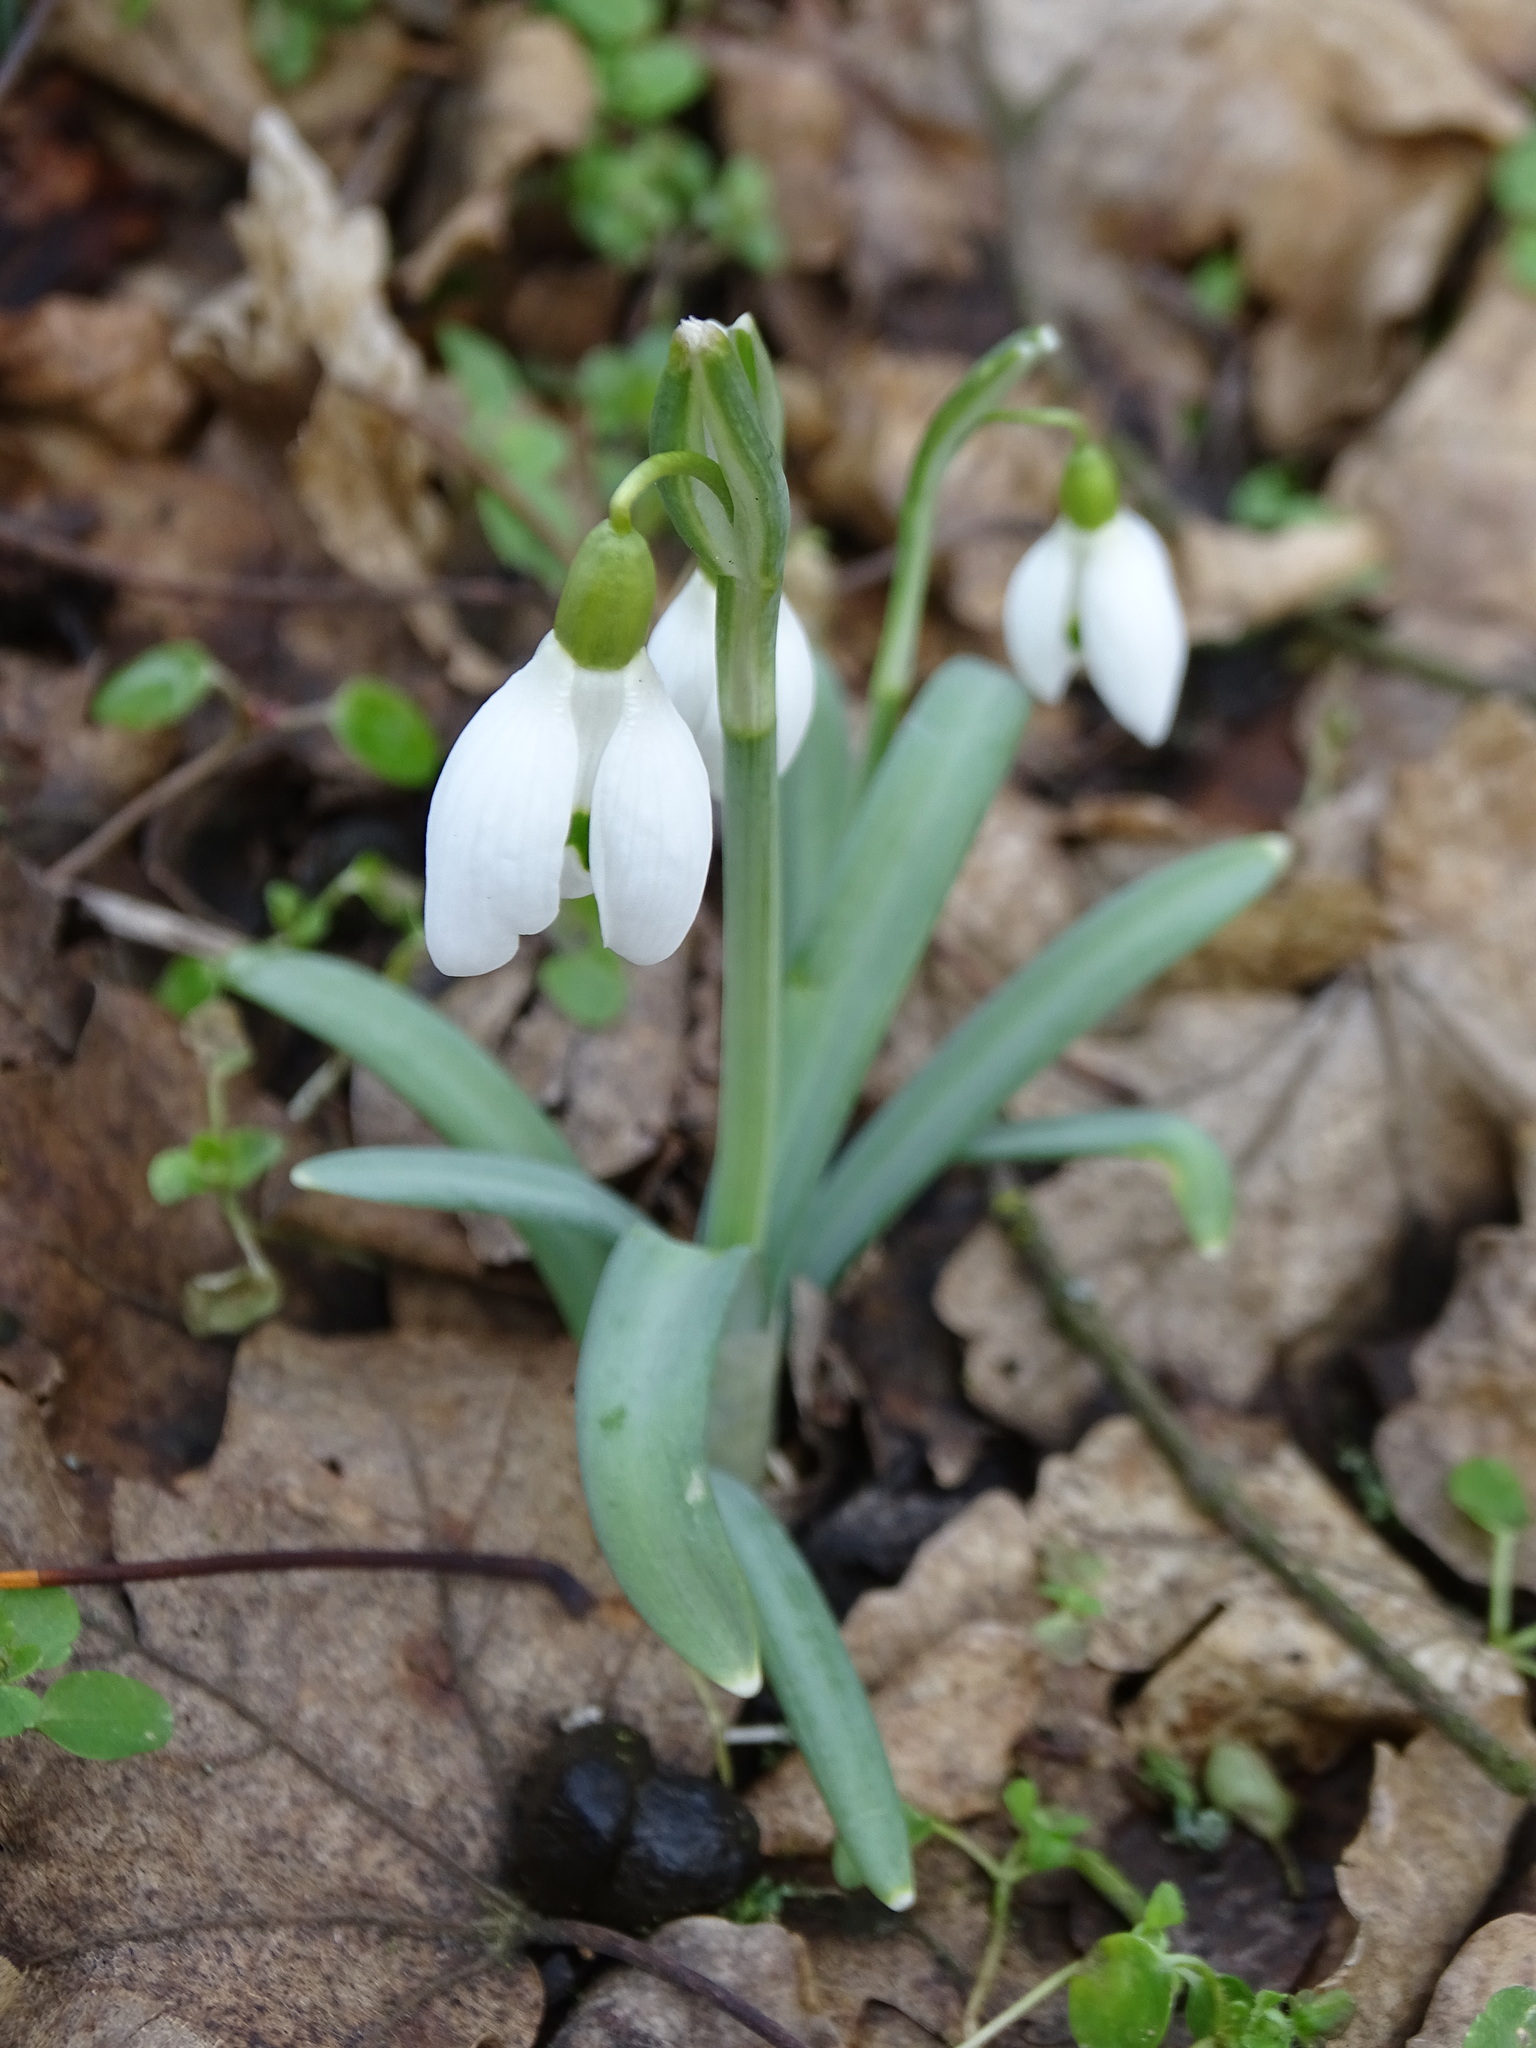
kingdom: Plantae
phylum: Tracheophyta
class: Liliopsida
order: Asparagales
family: Amaryllidaceae
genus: Galanthus
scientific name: Galanthus nivalis
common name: Snowdrop
